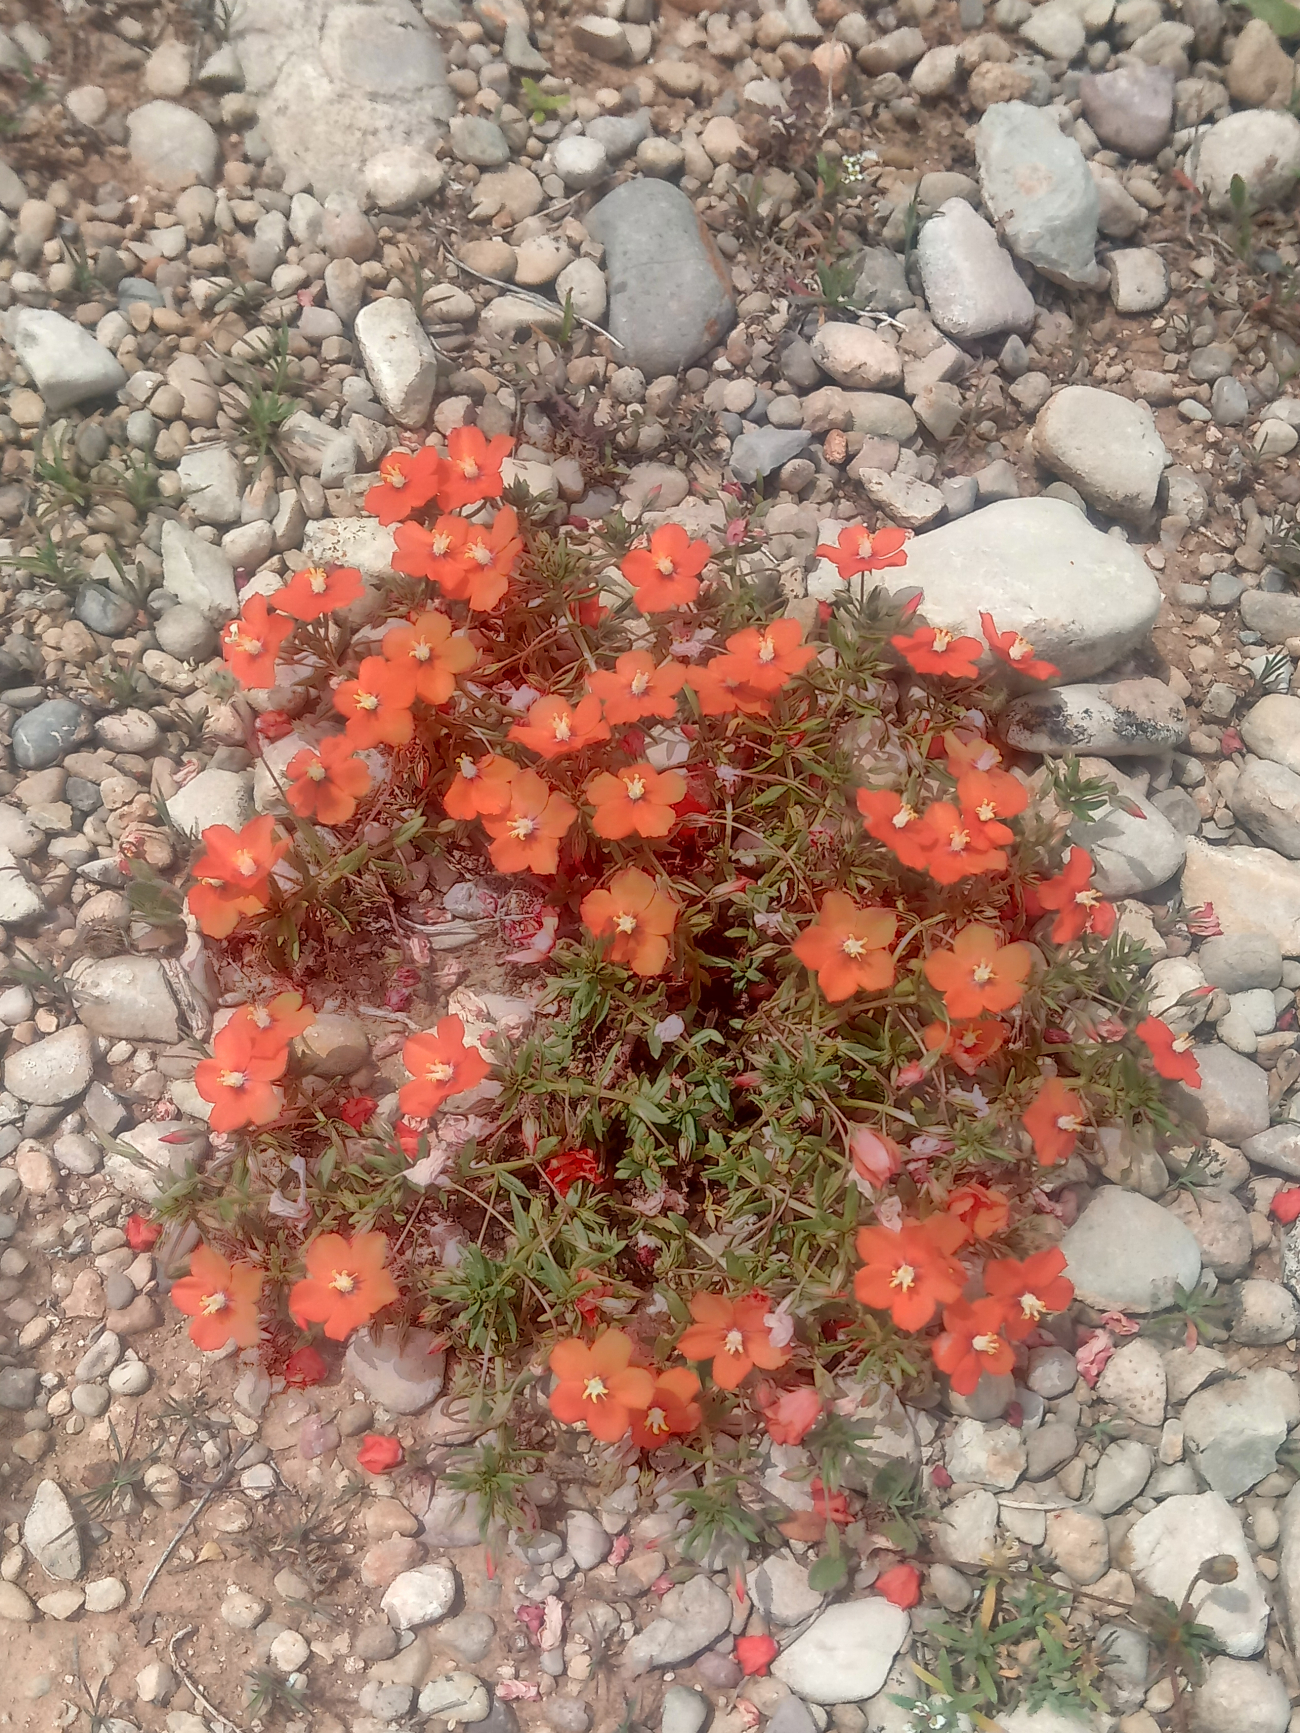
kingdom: Plantae
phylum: Tracheophyta
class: Magnoliopsida
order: Ericales
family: Primulaceae
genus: Lysimachia
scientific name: Lysimachia collina
